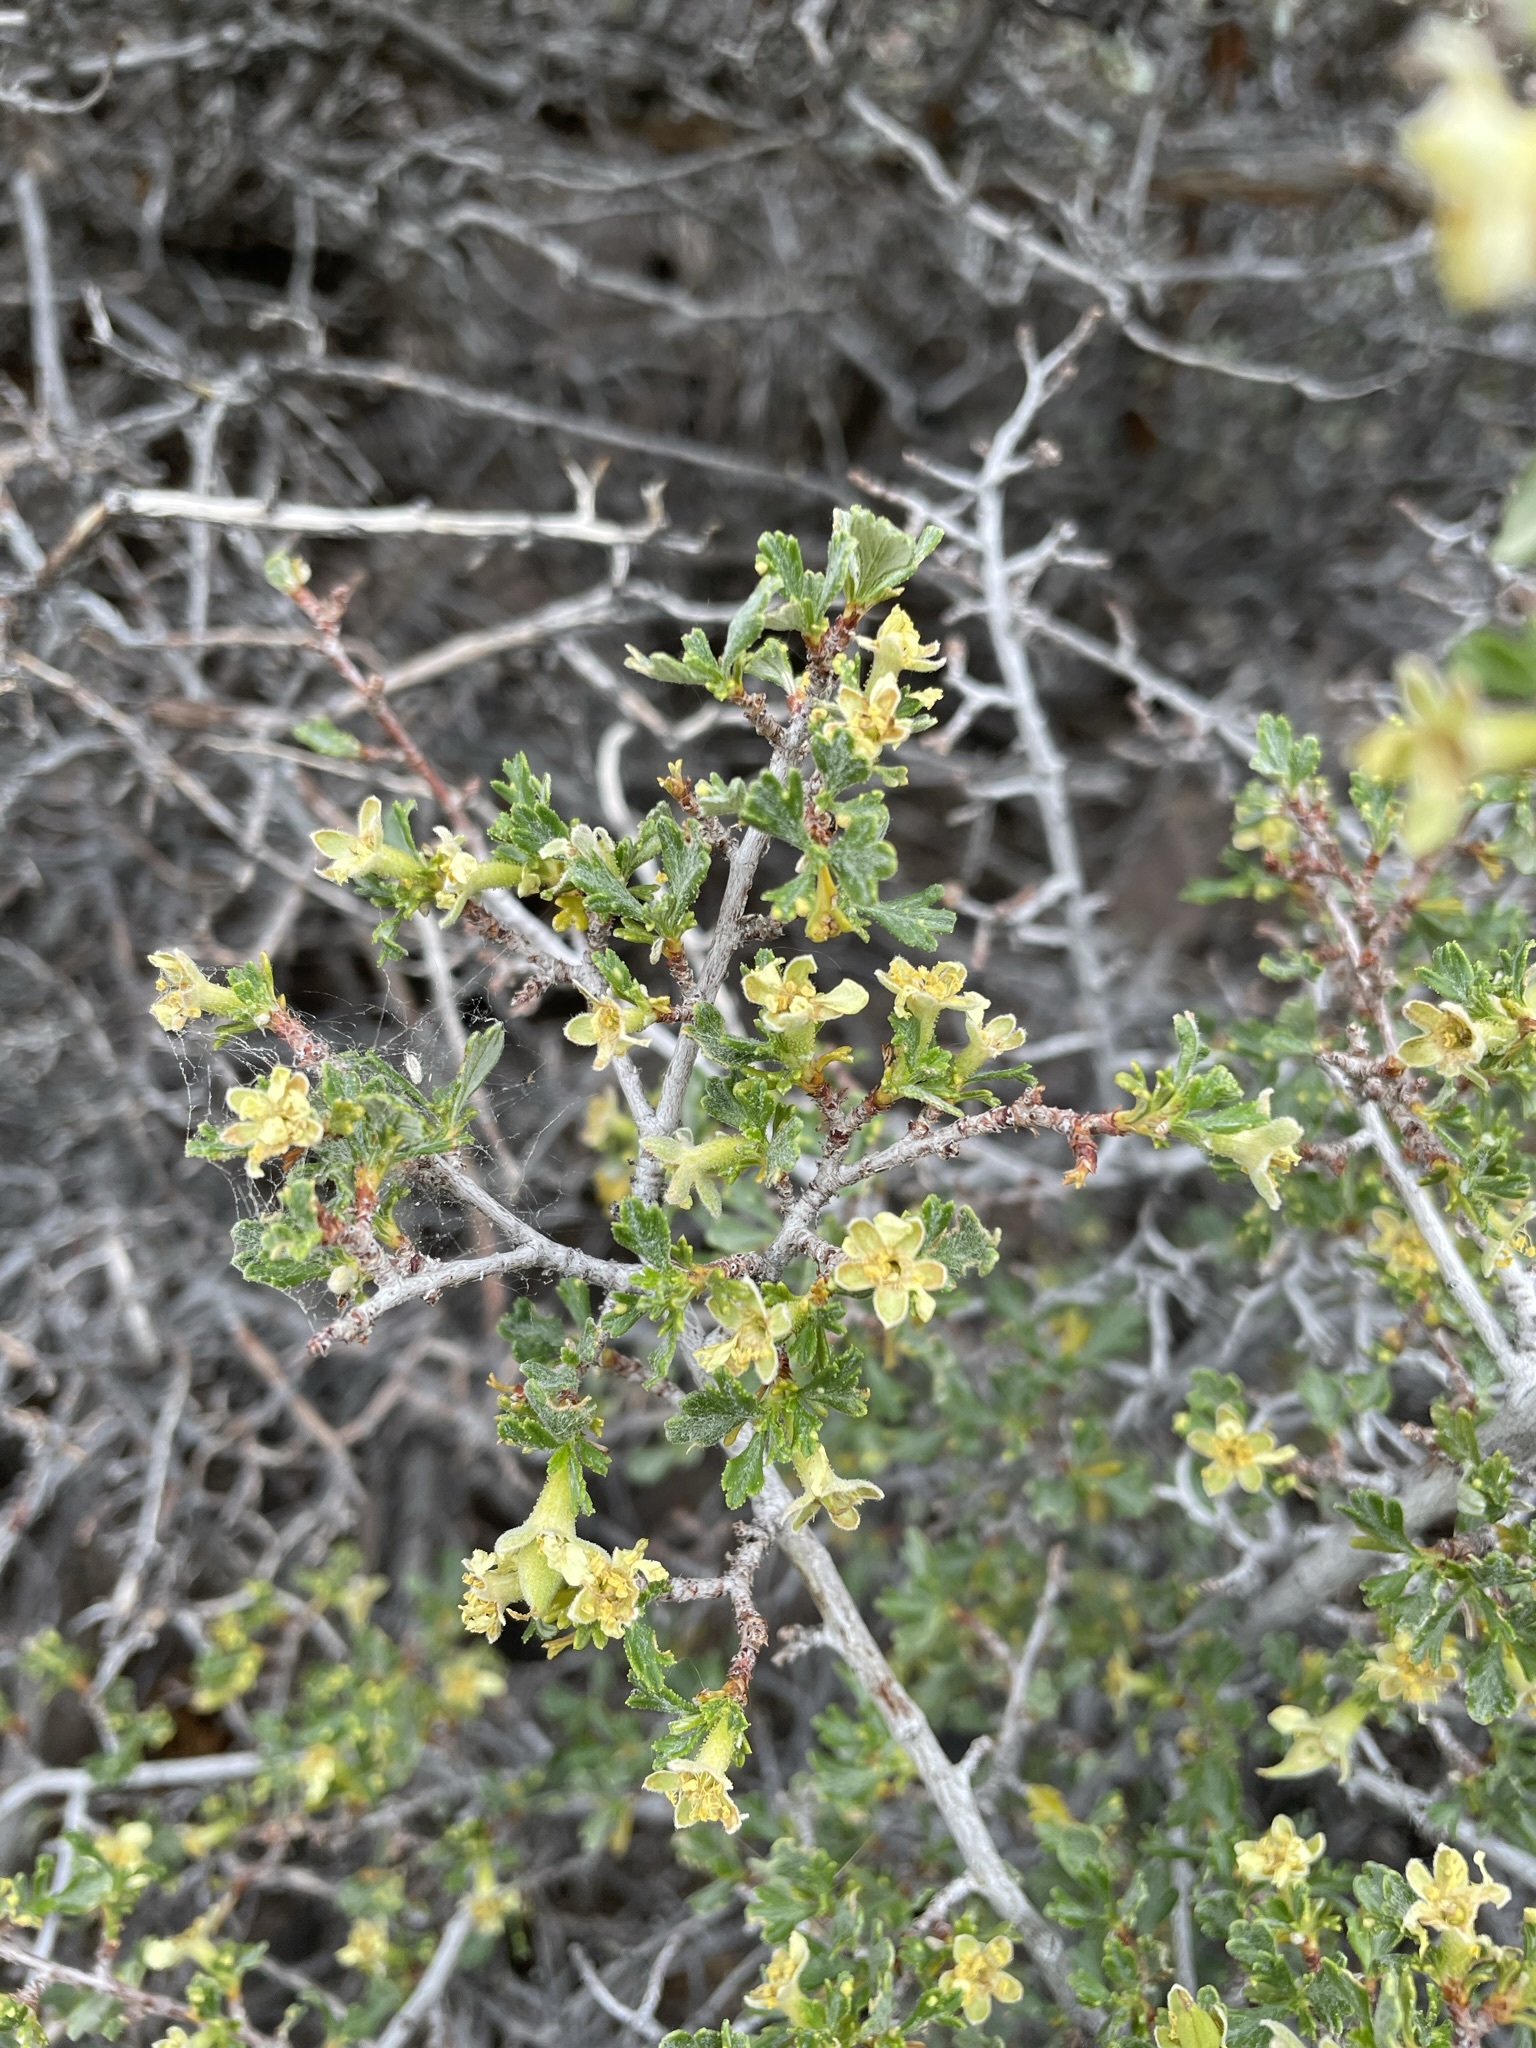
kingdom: Plantae
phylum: Tracheophyta
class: Magnoliopsida
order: Rosales
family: Rosaceae
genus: Purshia
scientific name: Purshia tridentata
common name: Antelope bitterbrush
